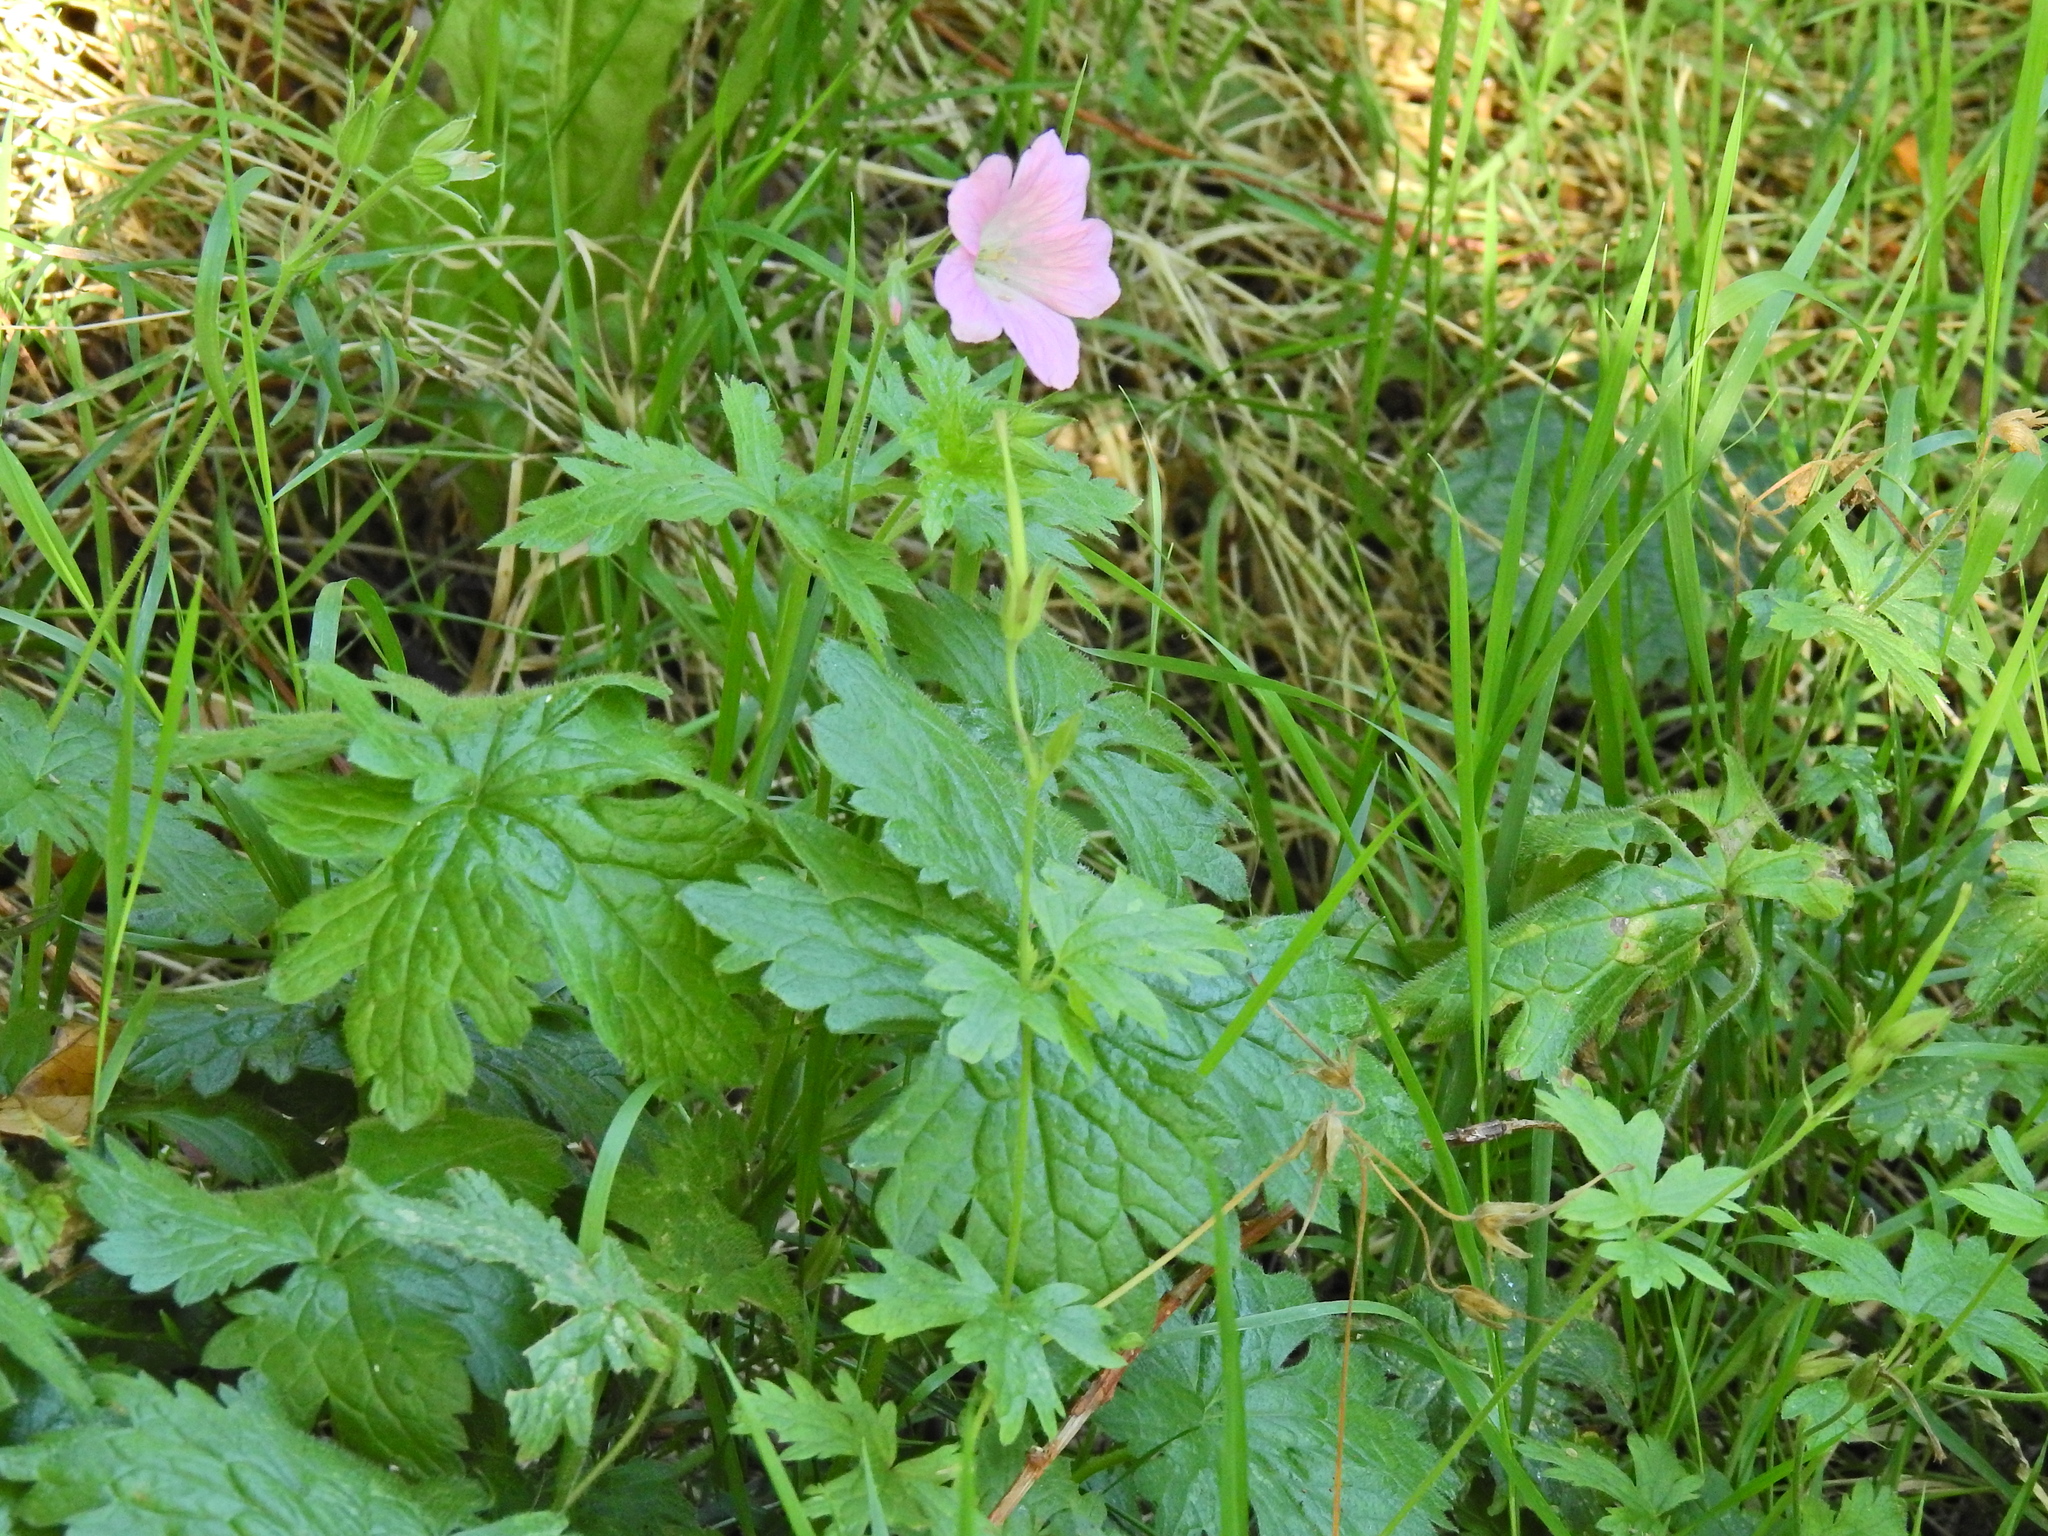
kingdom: Plantae
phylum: Tracheophyta
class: Magnoliopsida
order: Geraniales
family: Geraniaceae
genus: Geranium
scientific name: Geranium oxonianum
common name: Druce's crane's-bill
